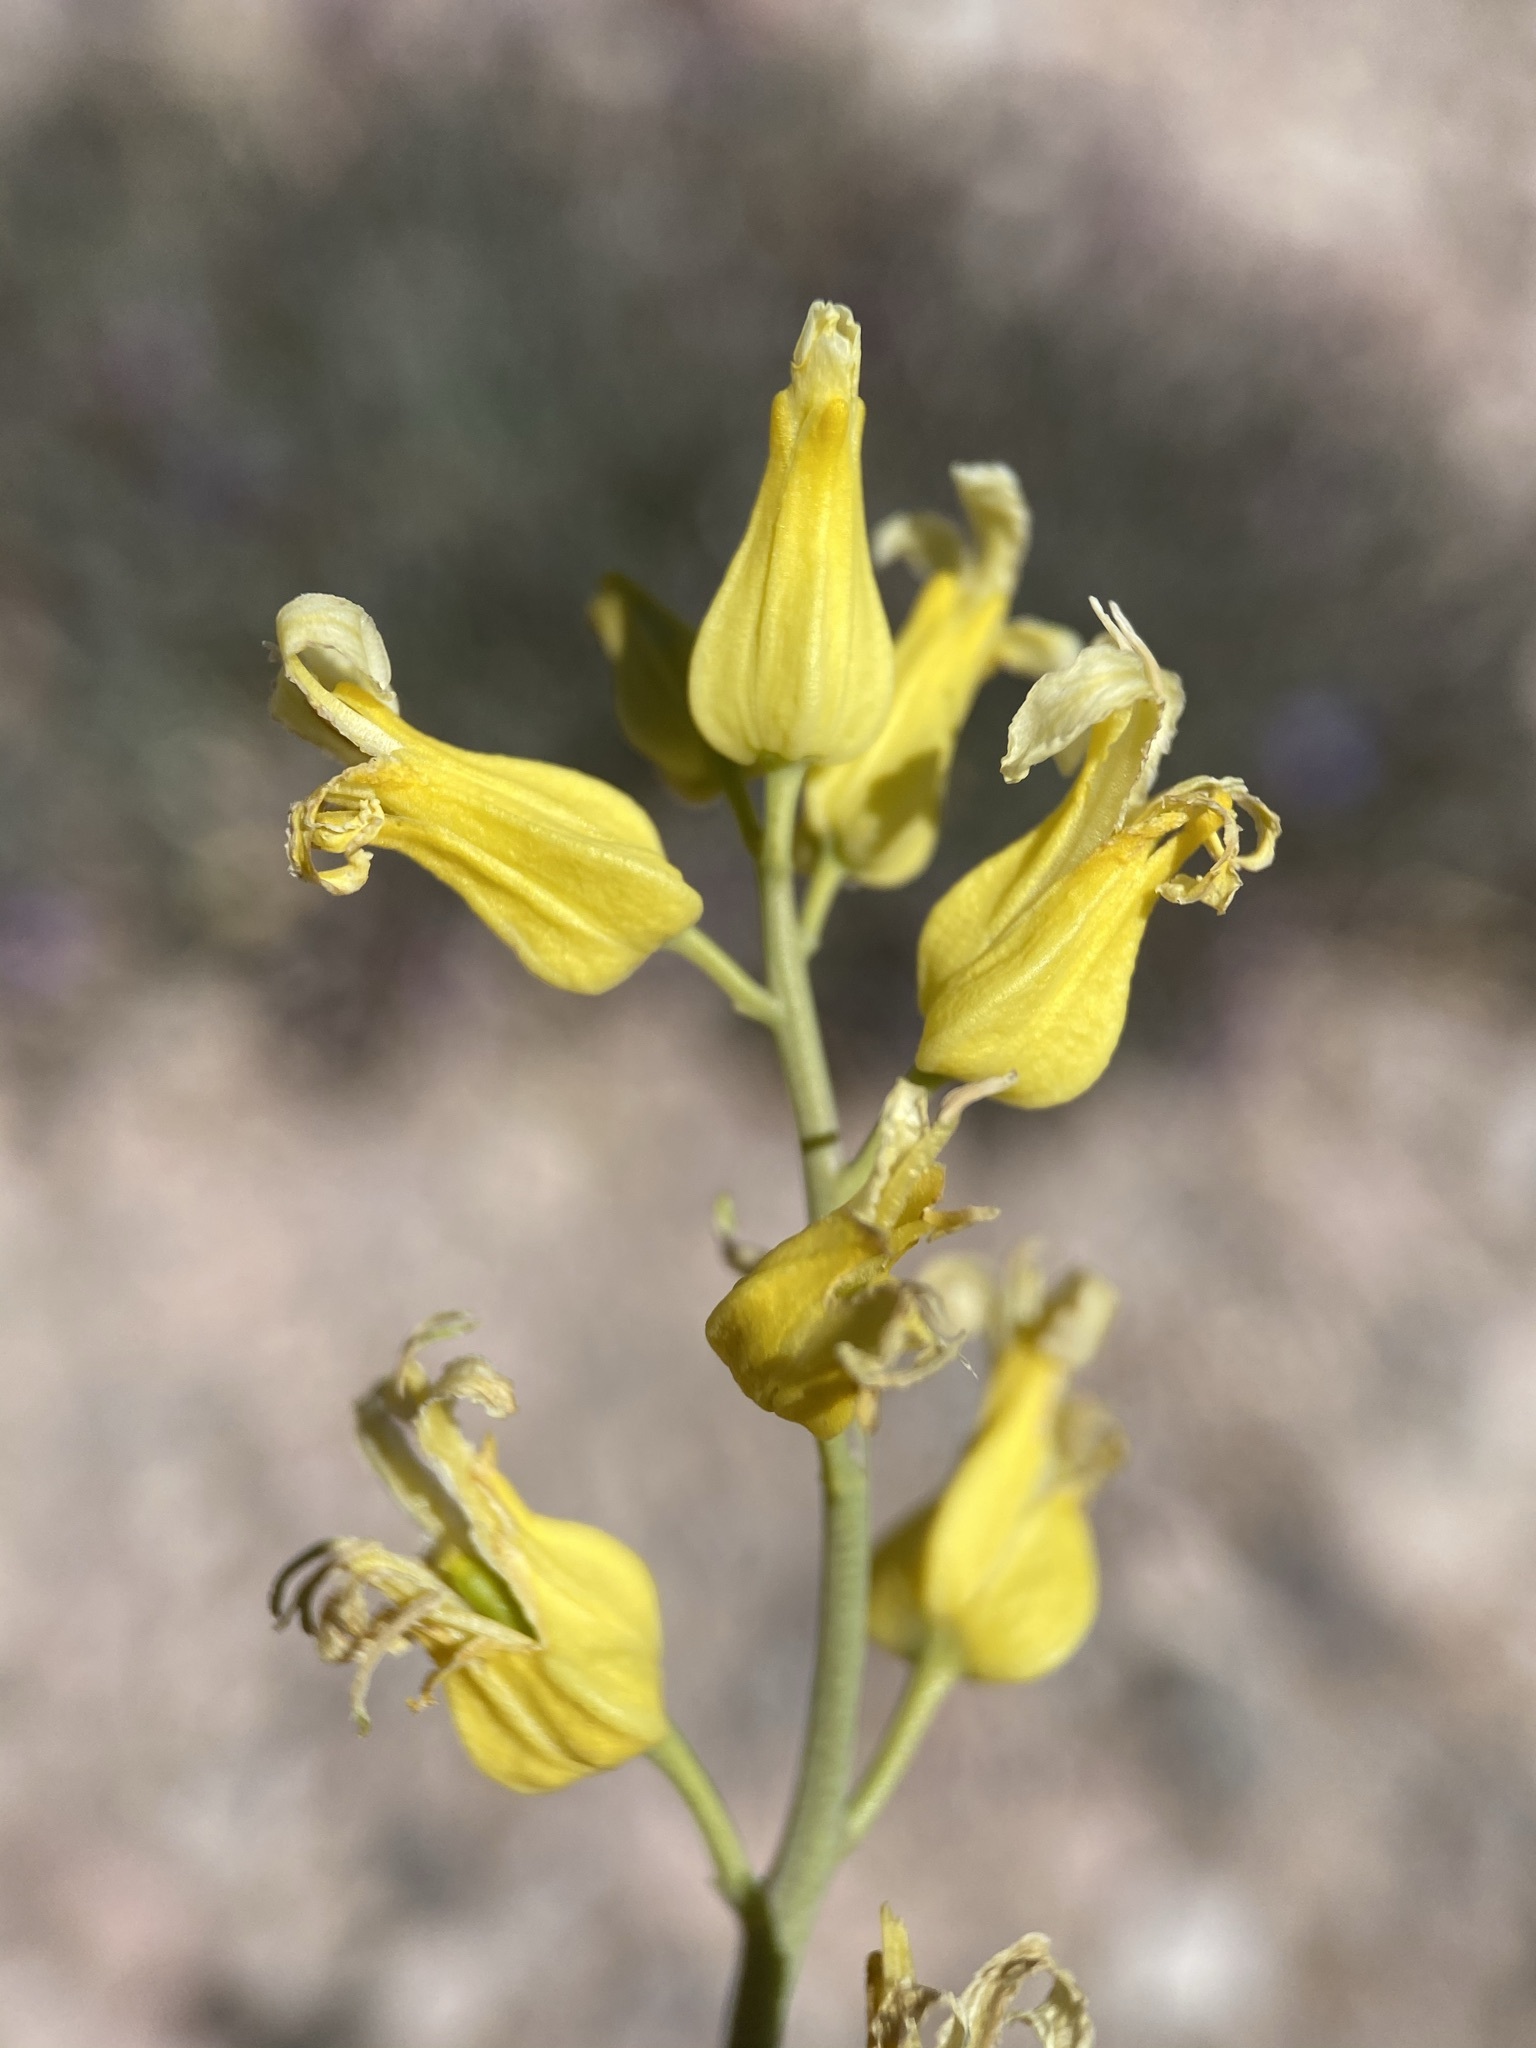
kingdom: Plantae
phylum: Tracheophyta
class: Magnoliopsida
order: Brassicales
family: Brassicaceae
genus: Streptanthus
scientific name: Streptanthus carinatus
